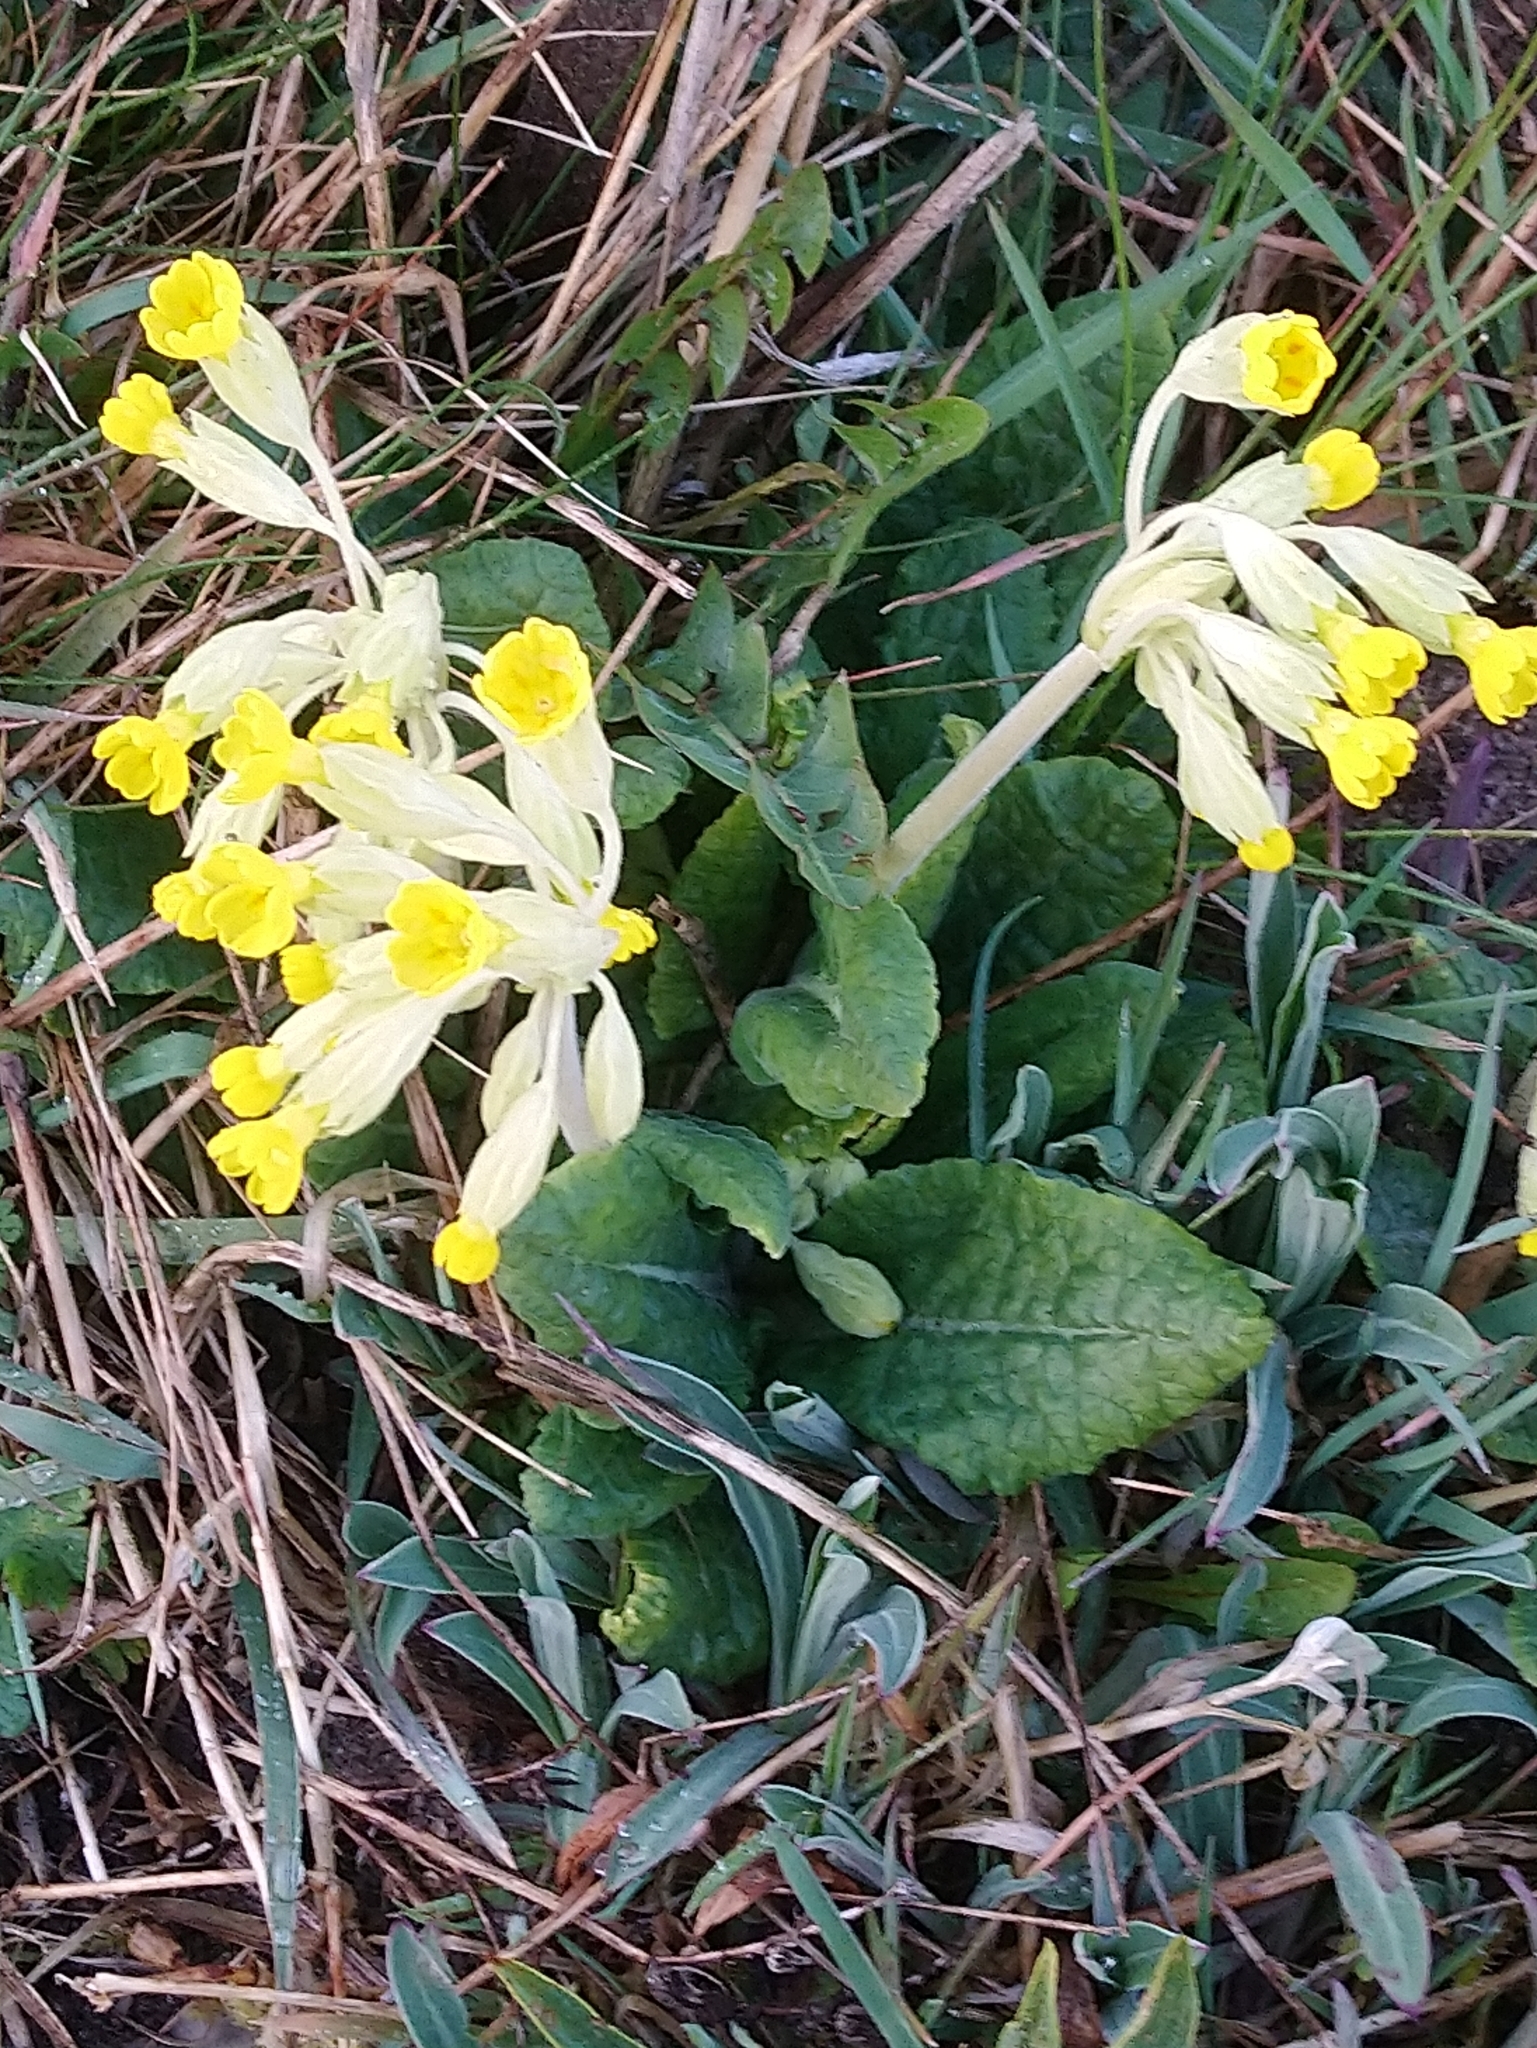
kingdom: Plantae
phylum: Tracheophyta
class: Magnoliopsida
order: Ericales
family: Primulaceae
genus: Primula
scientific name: Primula veris
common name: Cowslip
